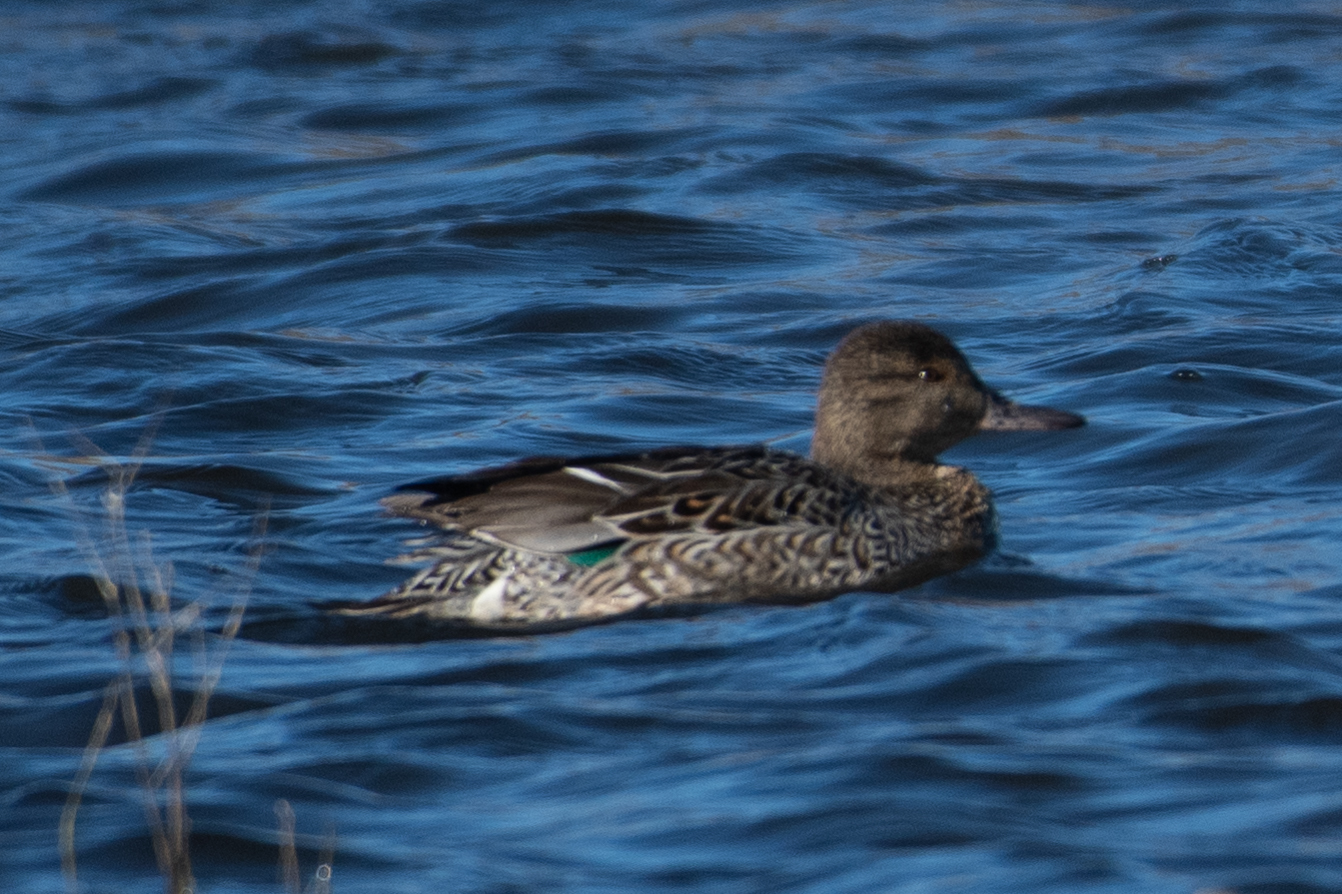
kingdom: Animalia
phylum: Chordata
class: Aves
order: Anseriformes
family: Anatidae
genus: Anas
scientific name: Anas crecca
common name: Eurasian teal
